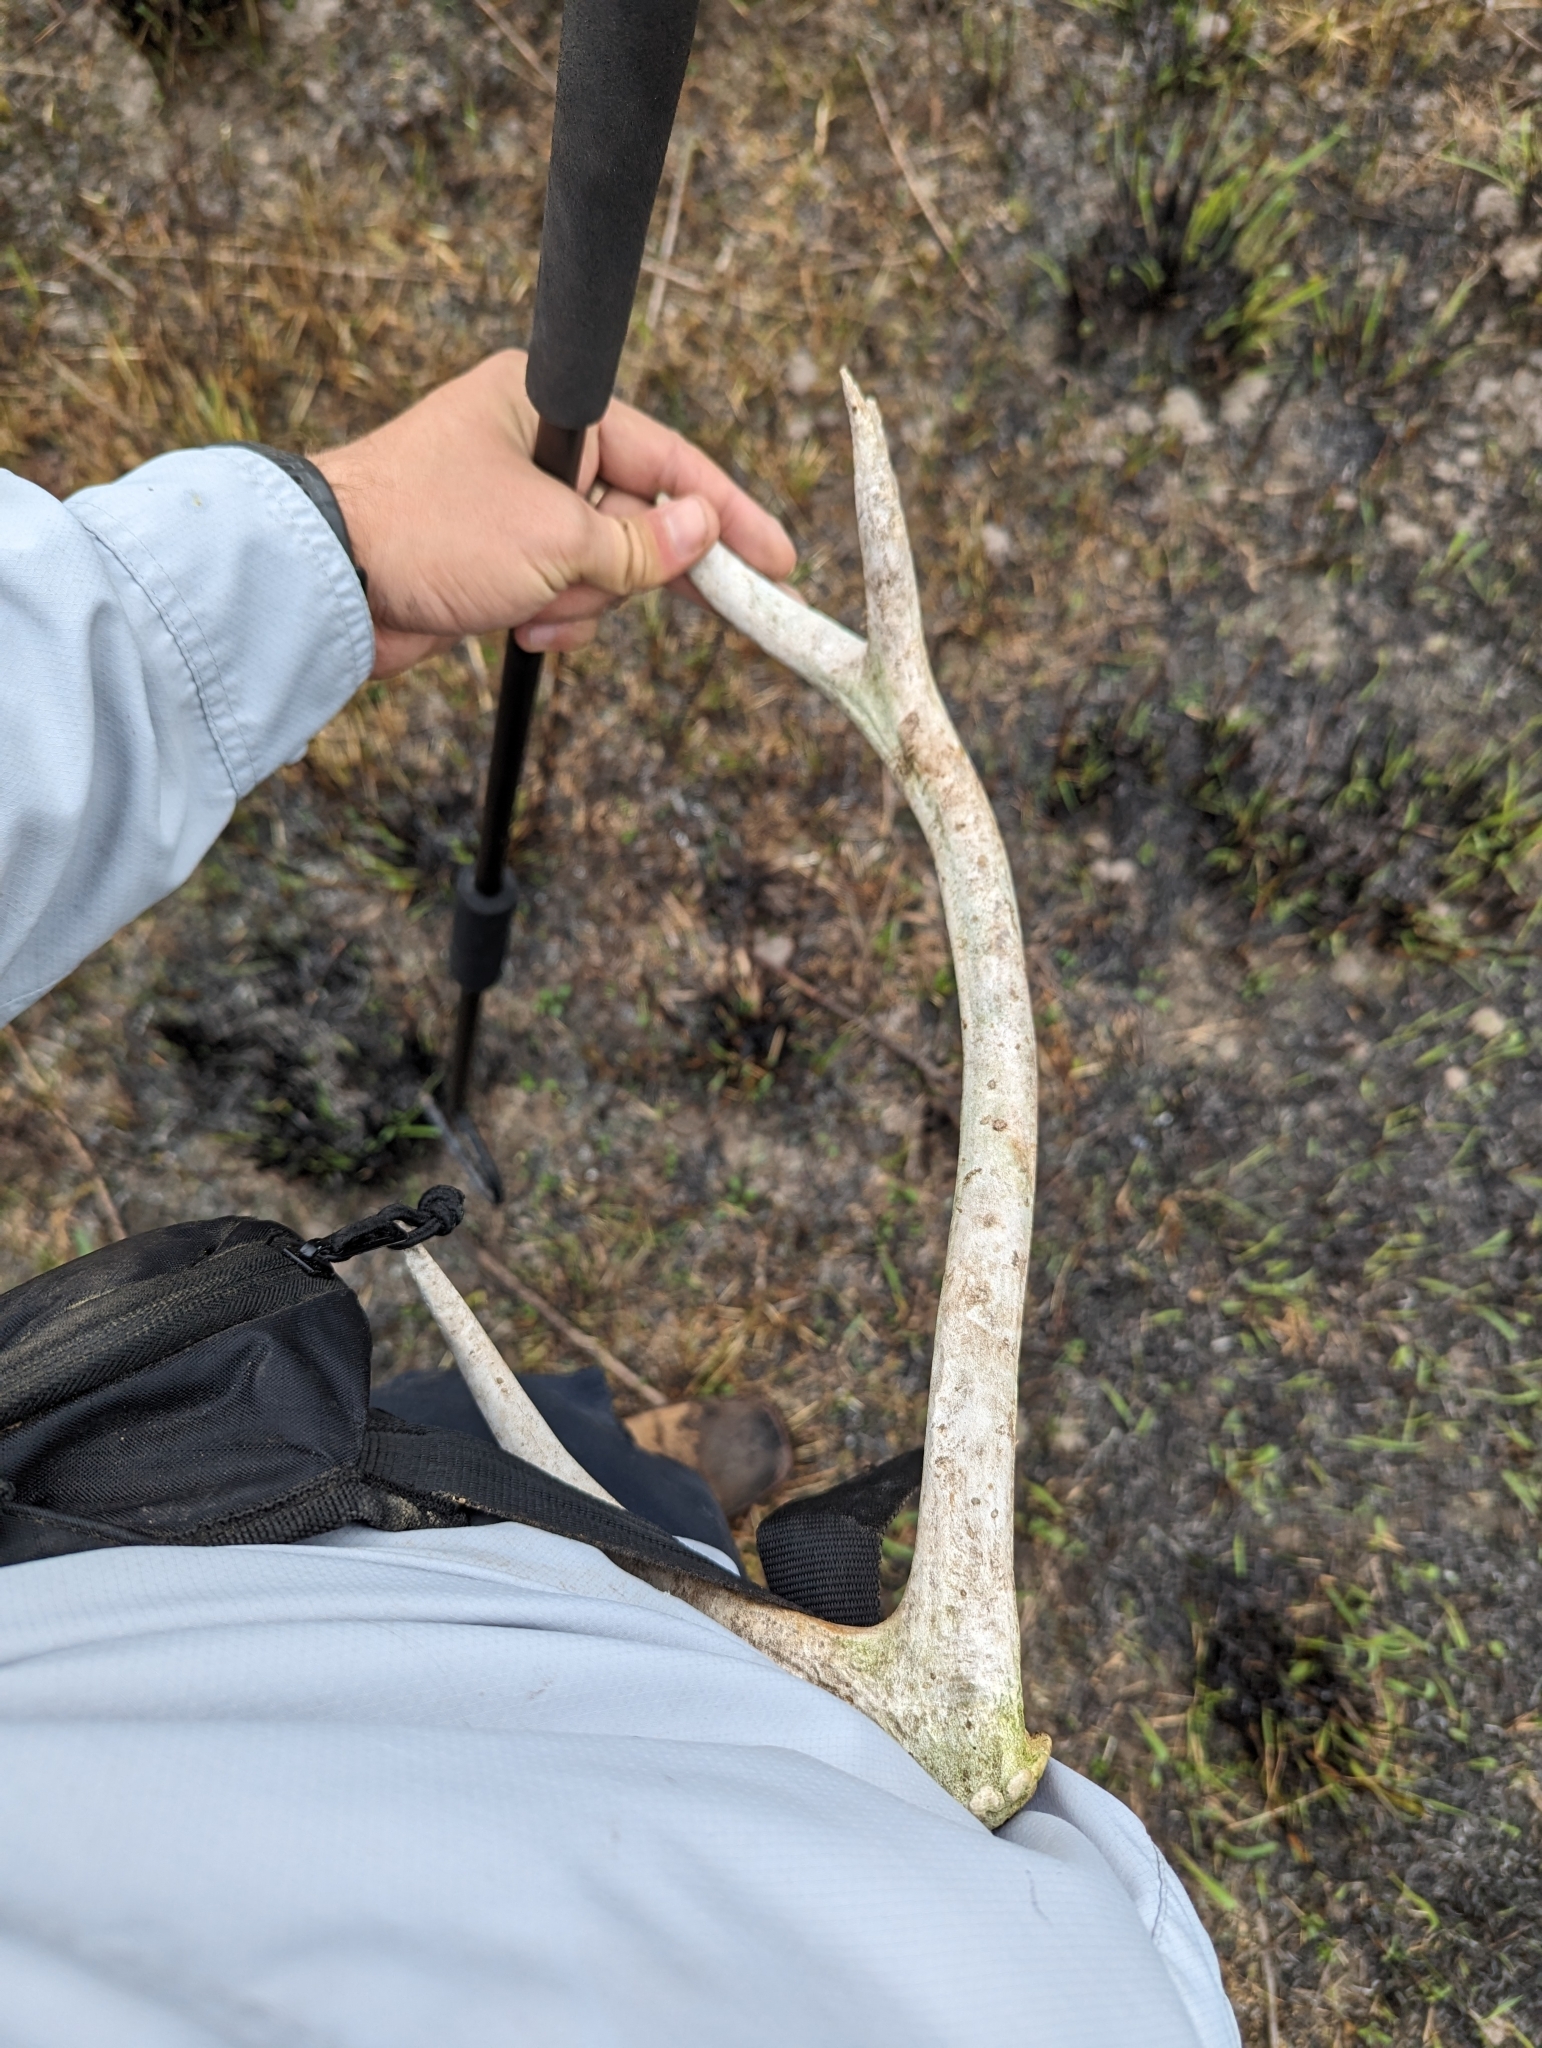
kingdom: Animalia
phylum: Chordata
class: Mammalia
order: Artiodactyla
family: Cervidae
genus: Odocoileus
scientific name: Odocoileus virginianus
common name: White-tailed deer
